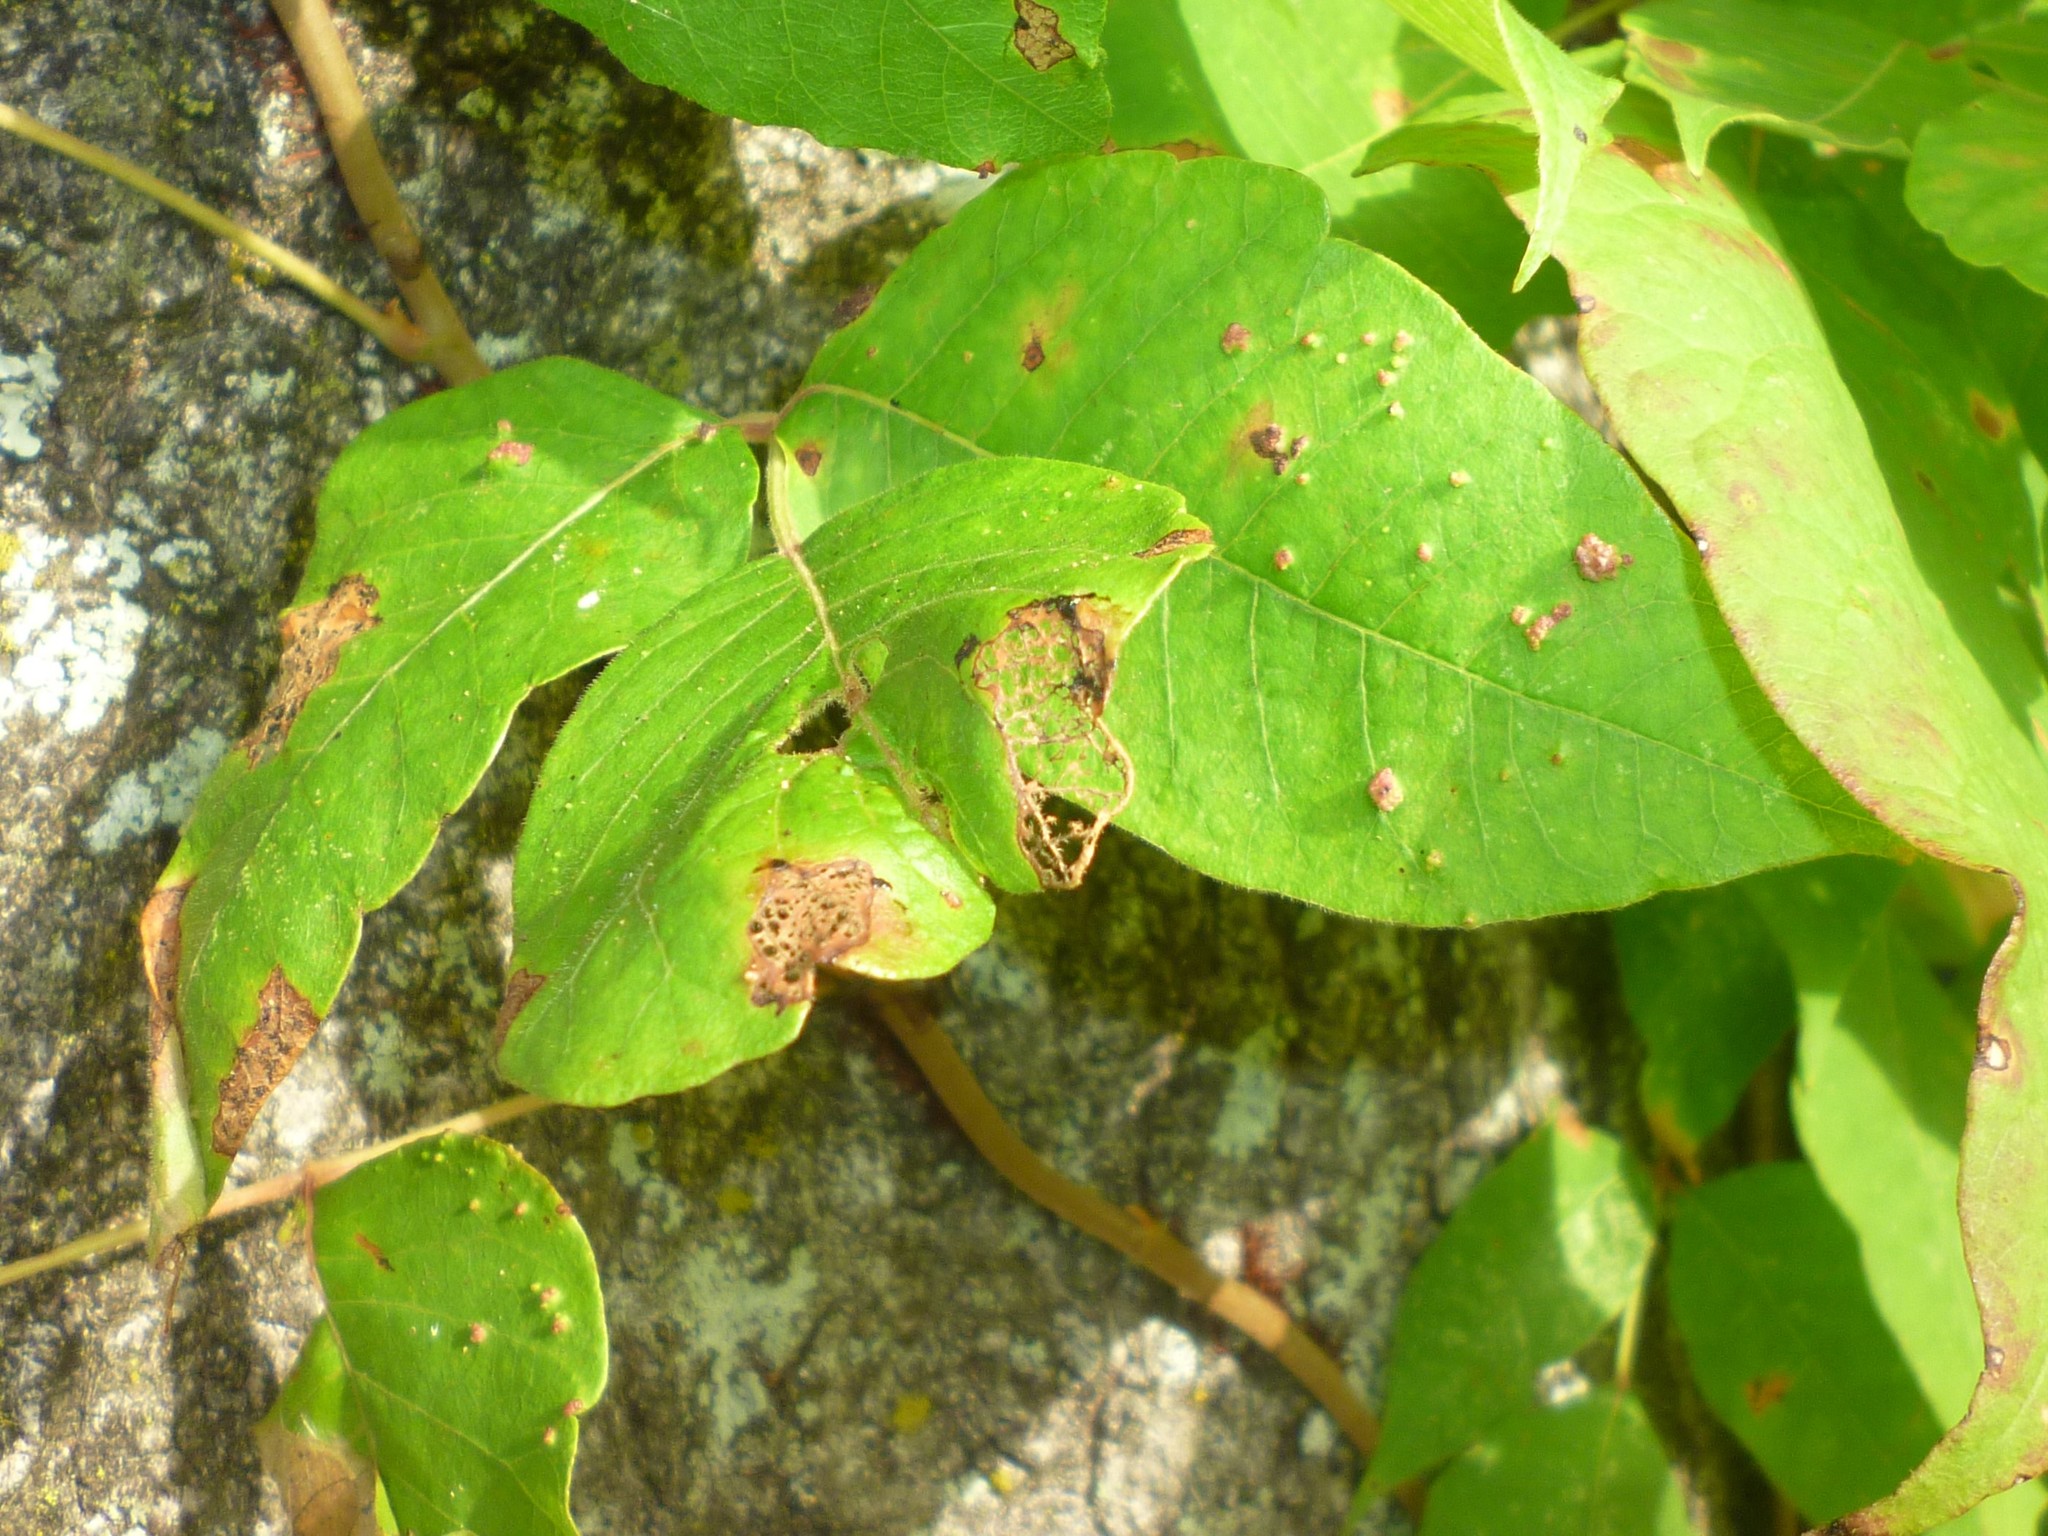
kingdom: Animalia
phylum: Arthropoda
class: Arachnida
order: Trombidiformes
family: Eriophyidae
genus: Aculops
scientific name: Aculops
